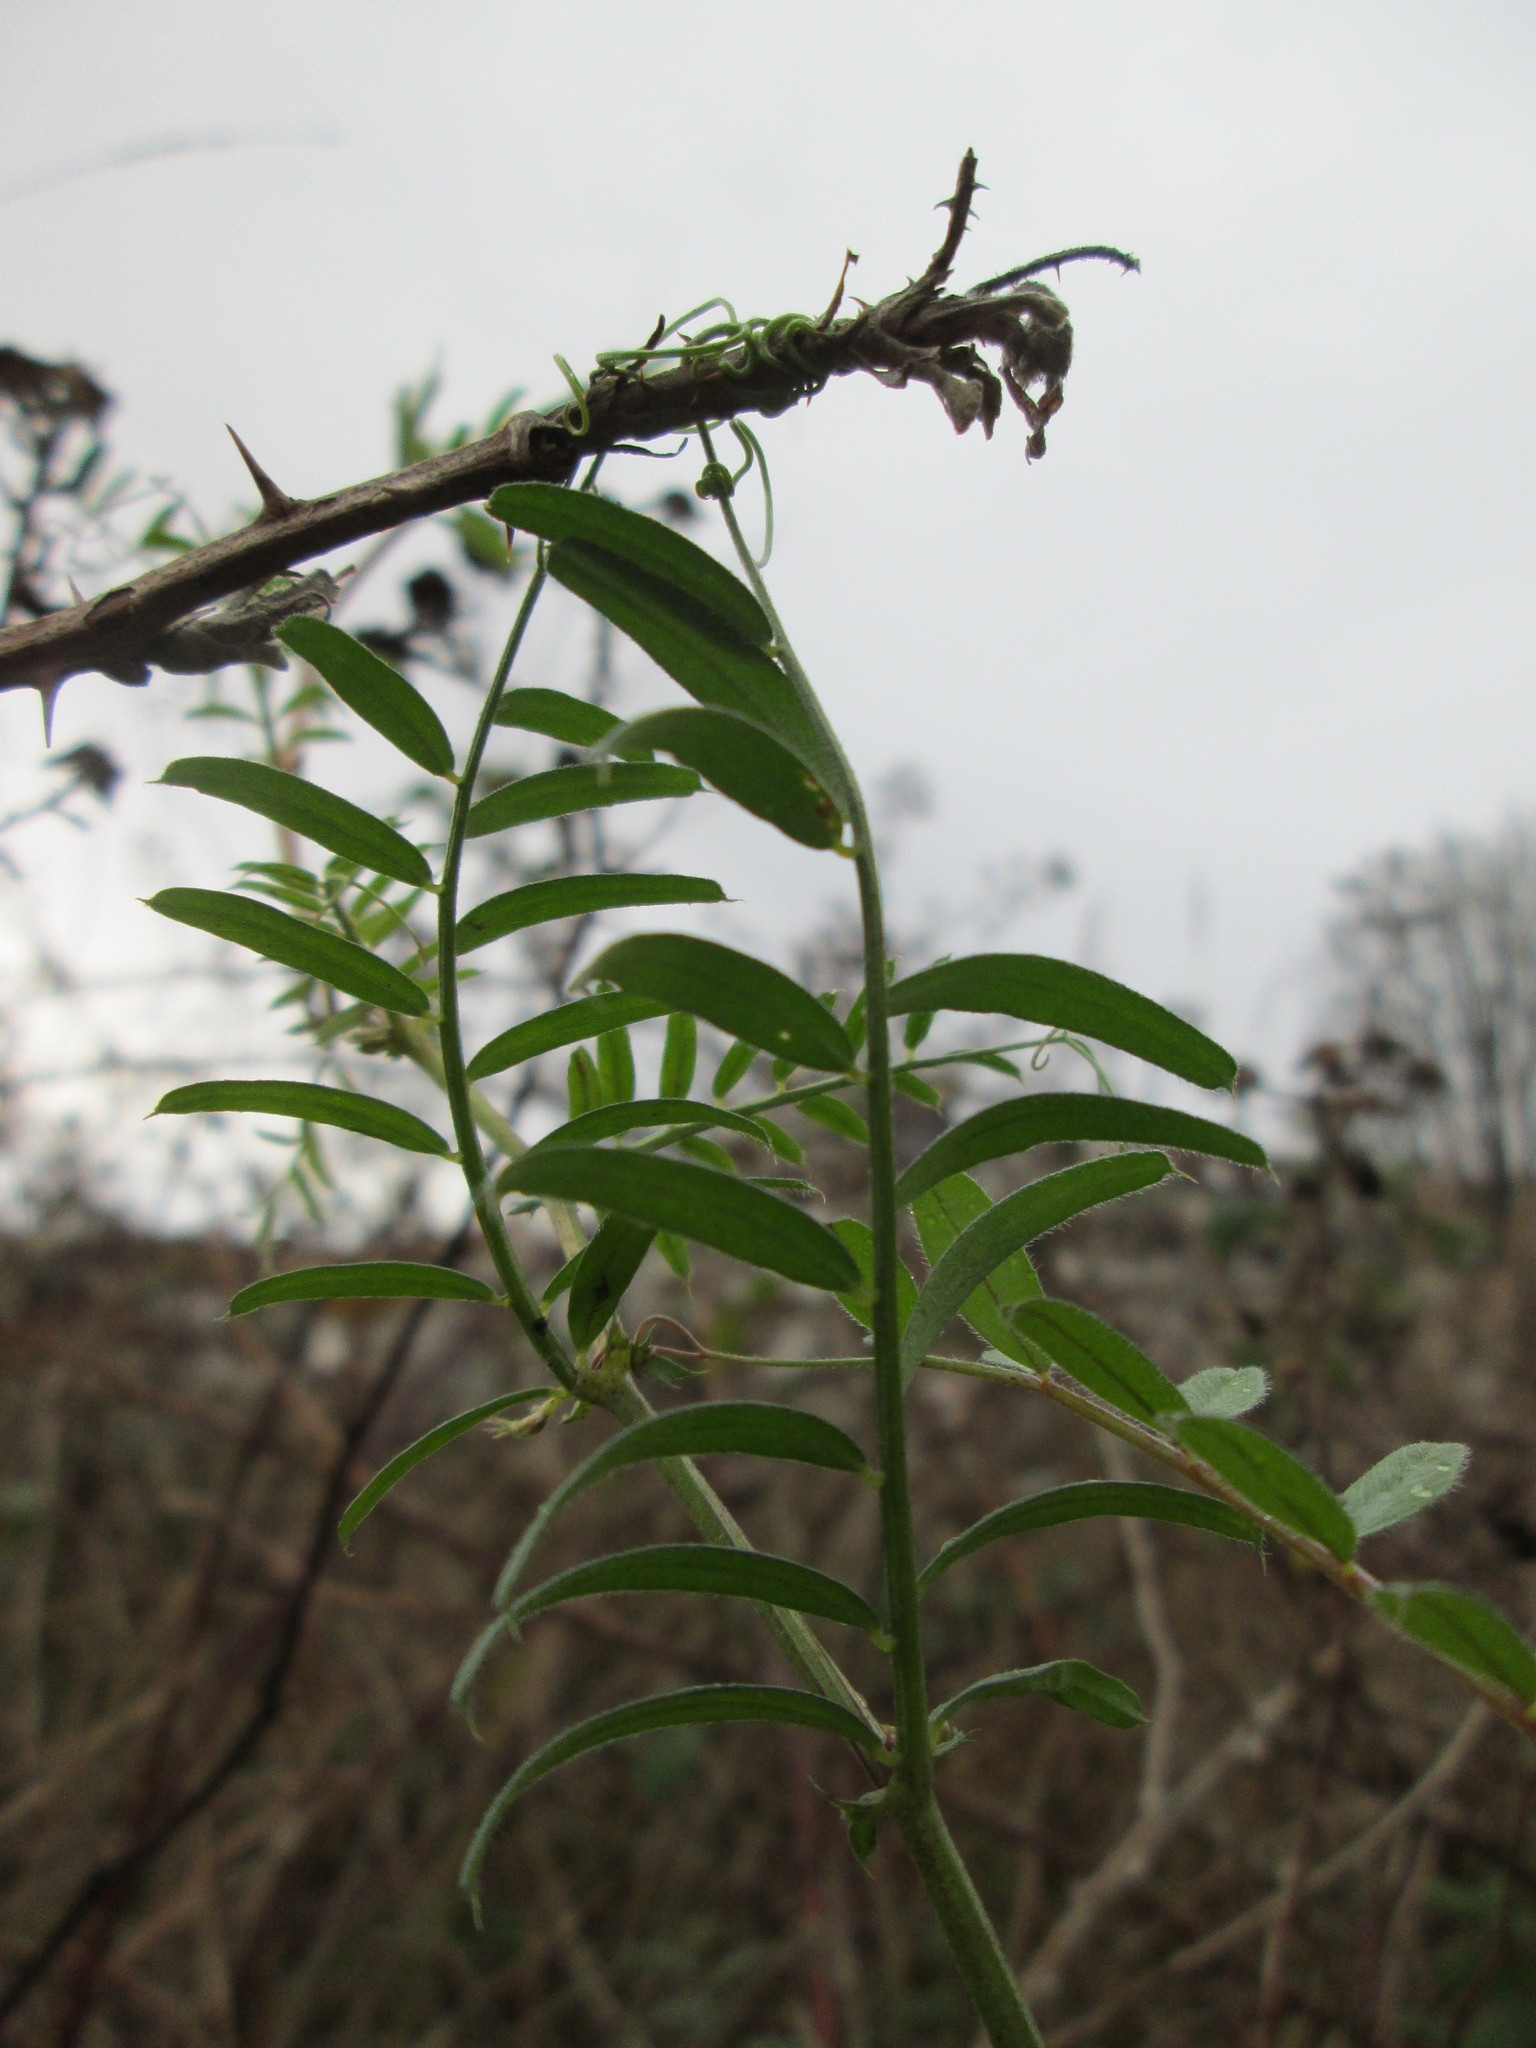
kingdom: Plantae
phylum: Tracheophyta
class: Magnoliopsida
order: Fabales
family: Fabaceae
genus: Vicia
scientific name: Vicia sativa
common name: Garden vetch
